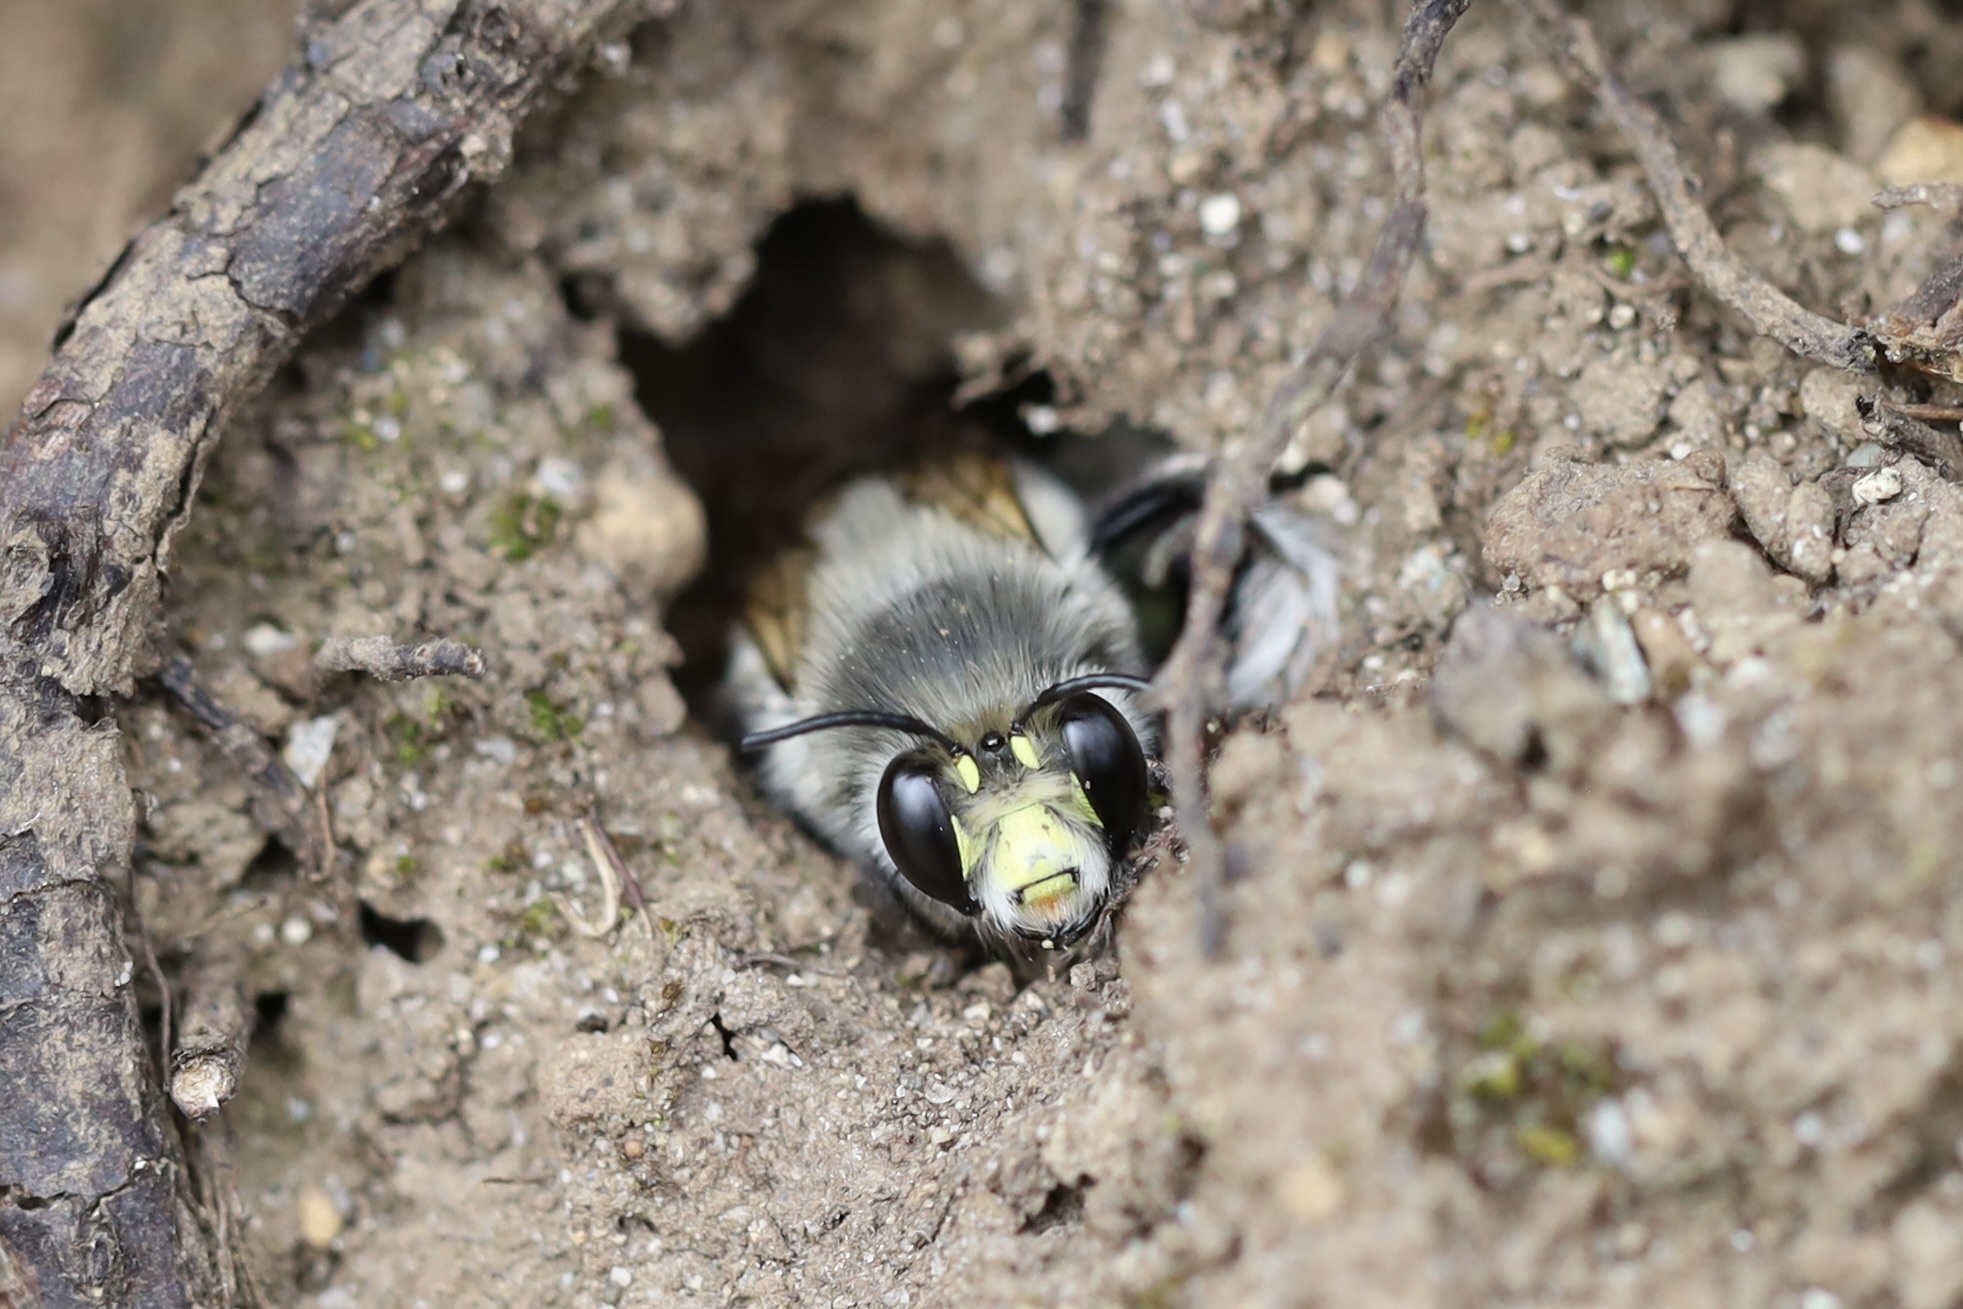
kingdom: Animalia
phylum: Arthropoda
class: Insecta
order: Hymenoptera
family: Apidae
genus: Anthophora
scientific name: Anthophora pacifica
